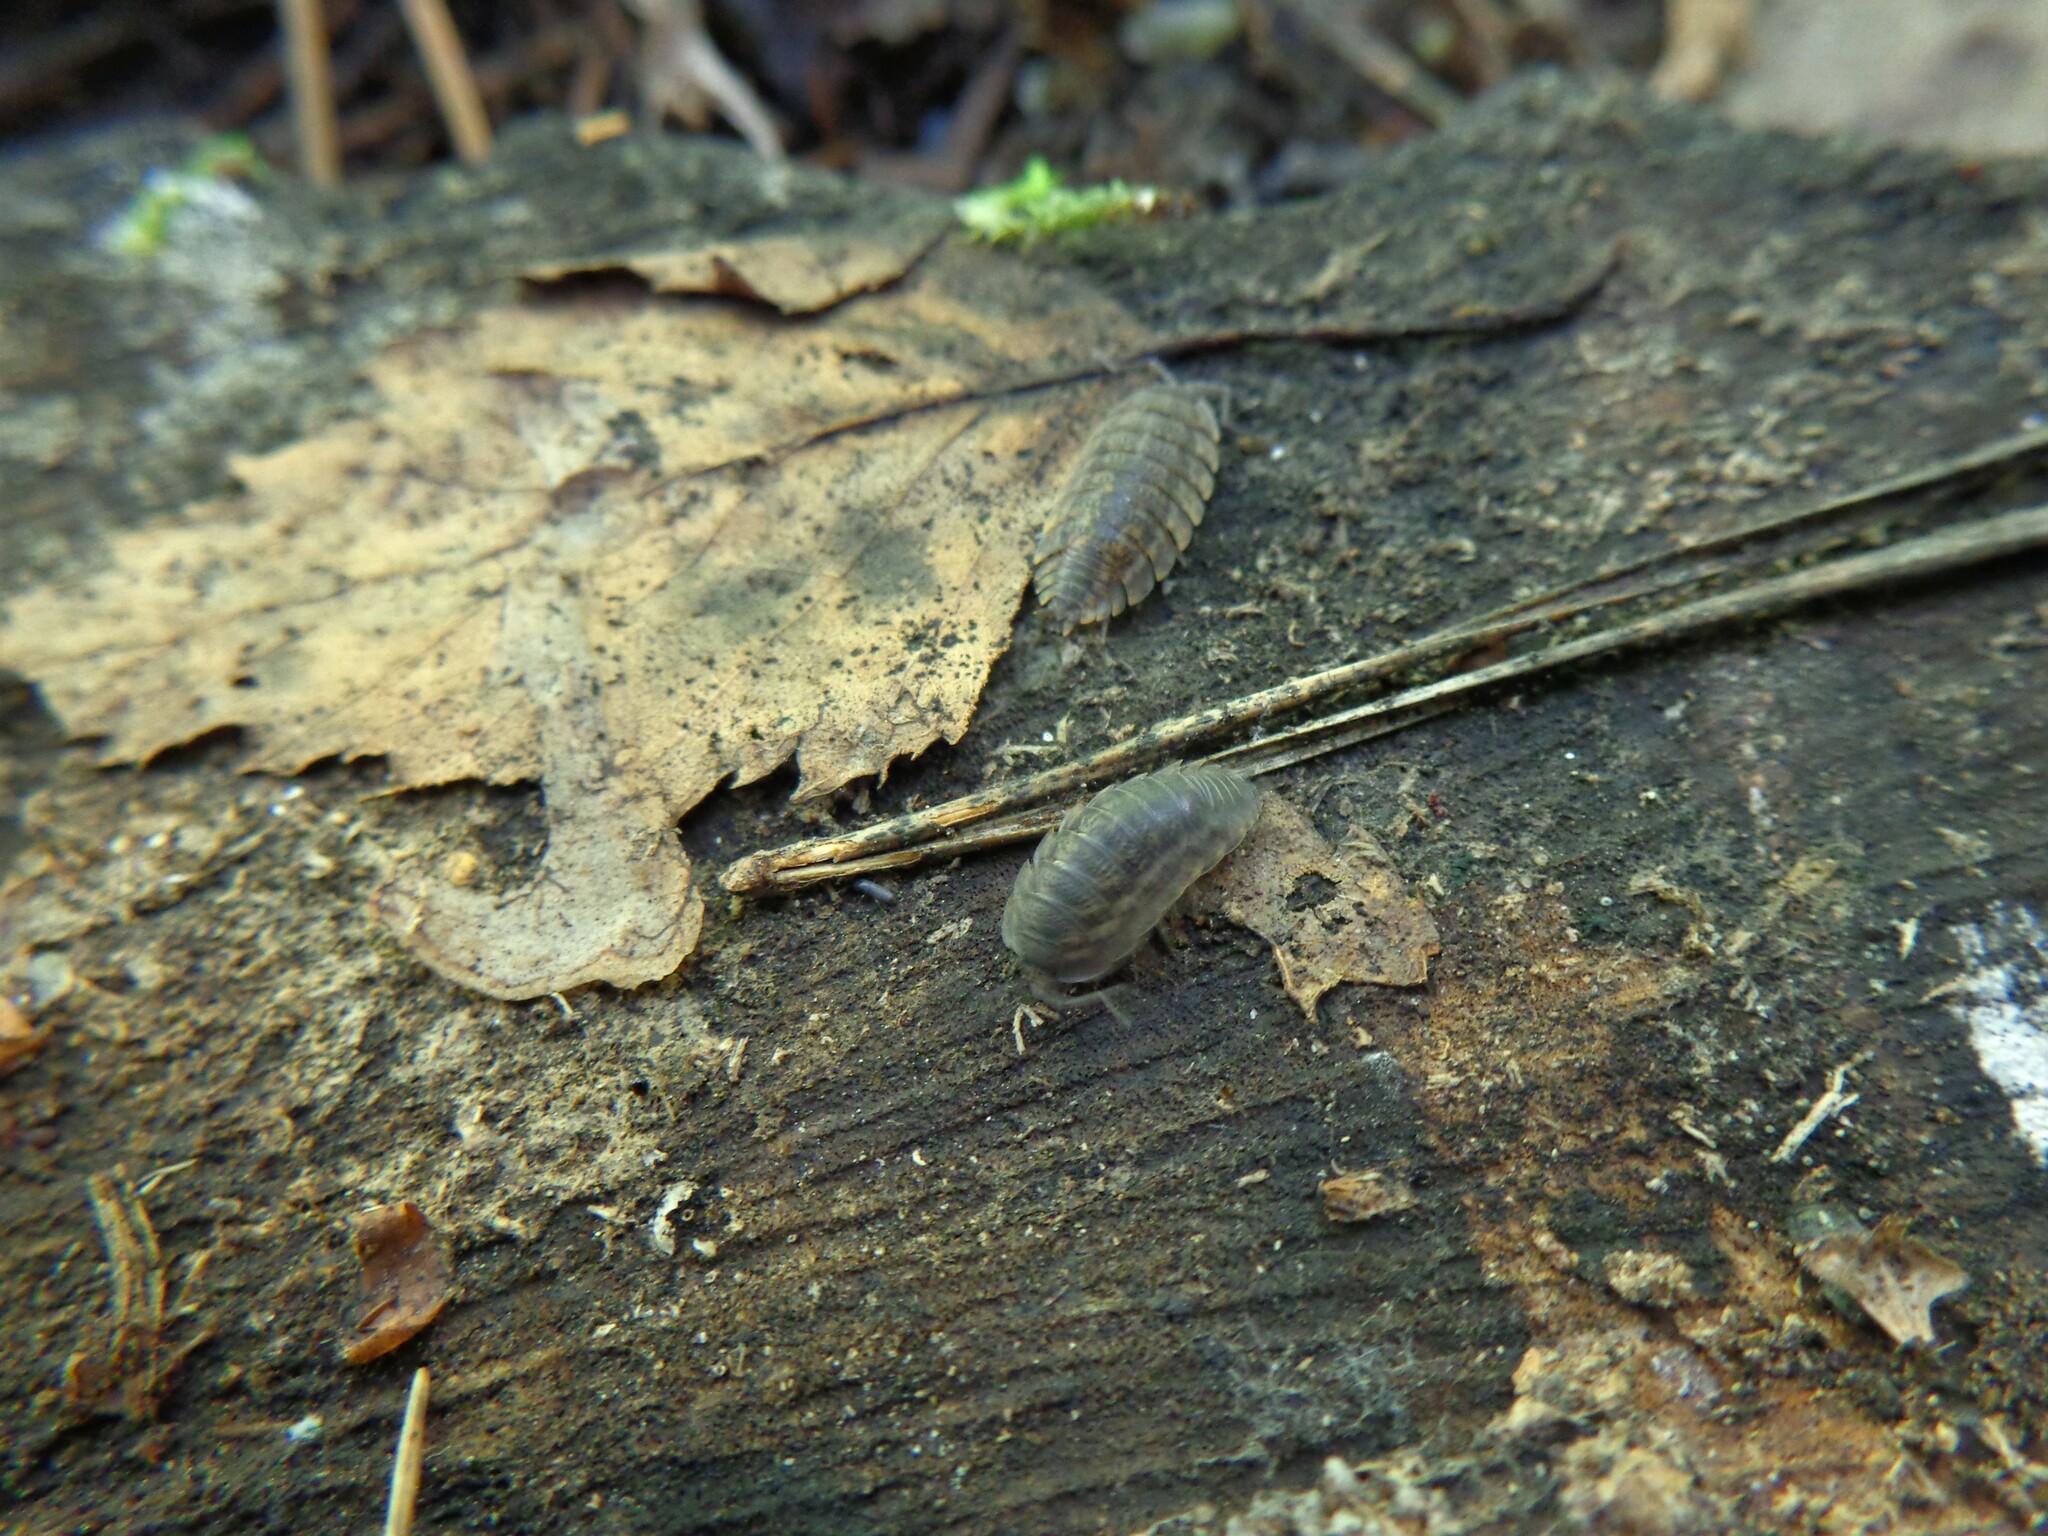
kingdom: Animalia
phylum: Arthropoda
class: Malacostraca
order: Isopoda
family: Trachelipodidae
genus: Trachelipus
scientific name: Trachelipus rathkii
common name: Isopod
